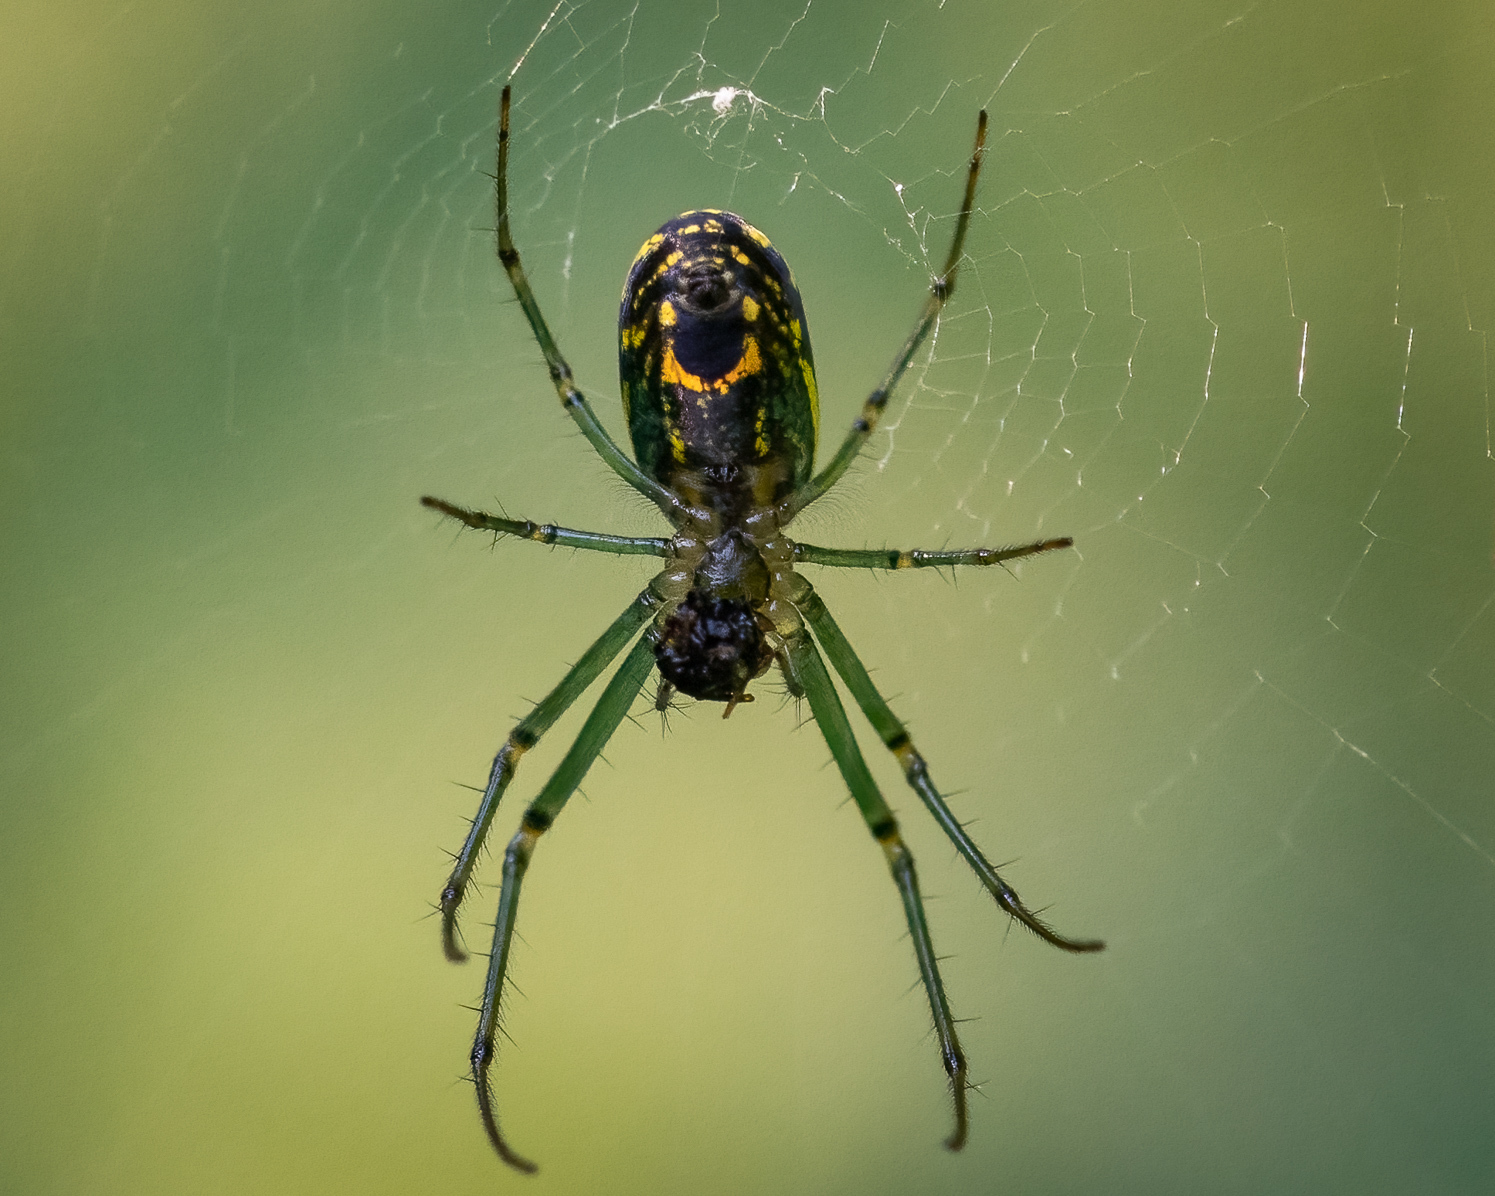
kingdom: Animalia
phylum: Arthropoda
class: Arachnida
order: Araneae
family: Tetragnathidae
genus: Leucauge
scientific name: Leucauge venusta
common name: Longjawed orb weavers
